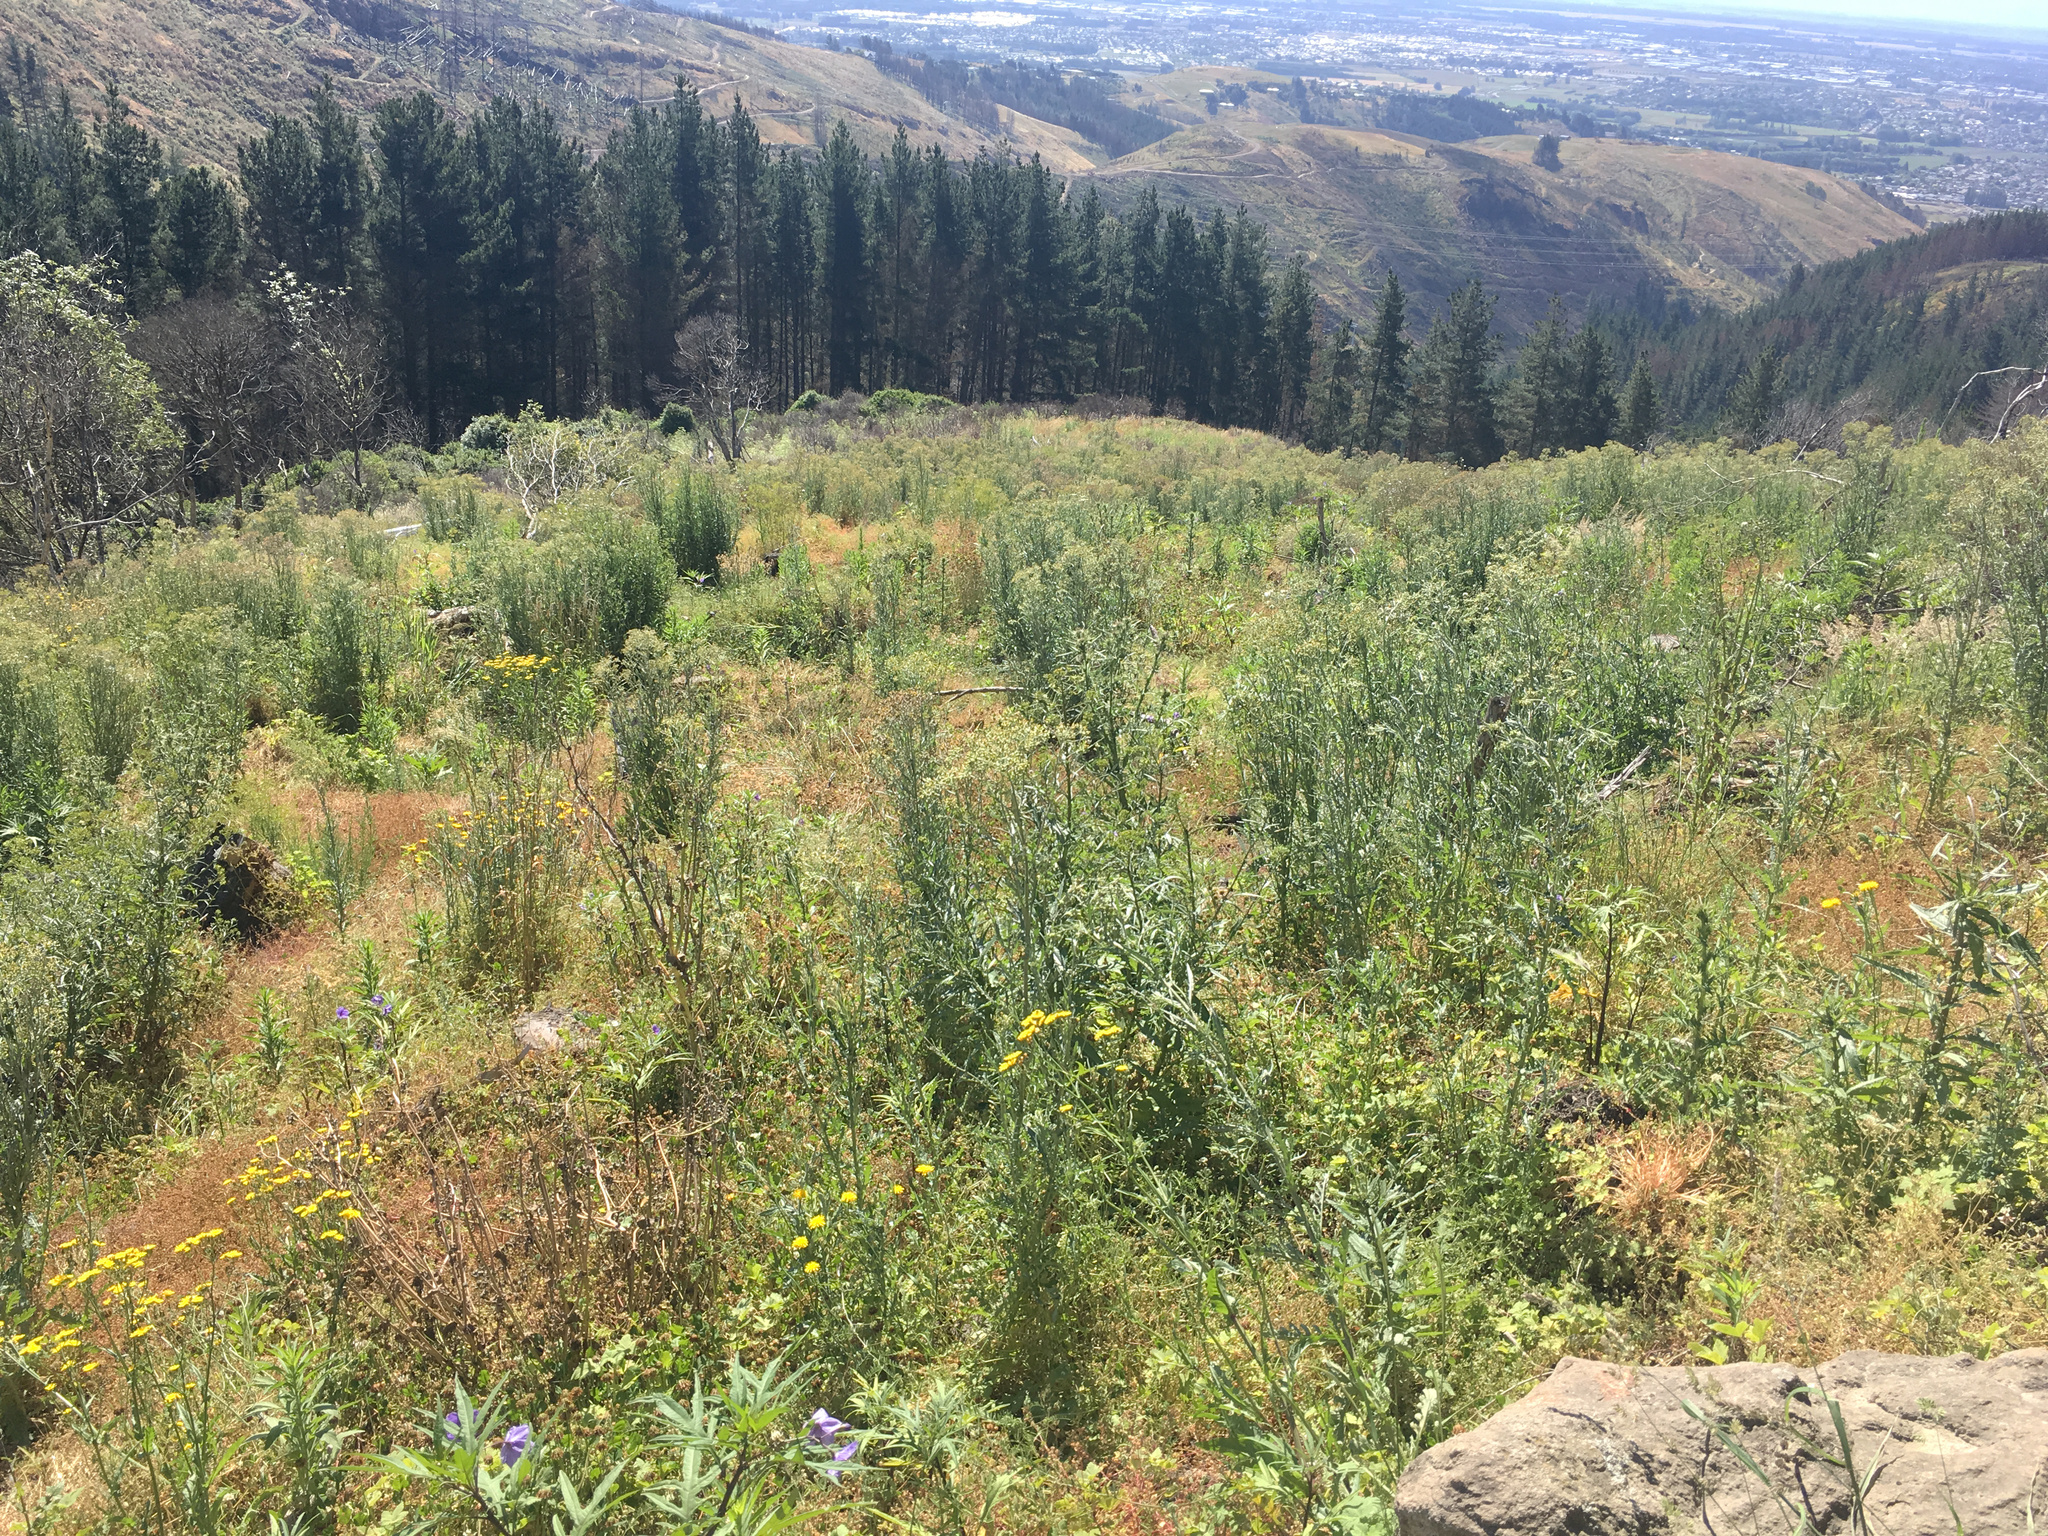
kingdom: Plantae
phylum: Tracheophyta
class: Magnoliopsida
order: Asterales
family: Asteraceae
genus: Senecio
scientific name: Senecio glomeratus
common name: Cutleaf burnweed
